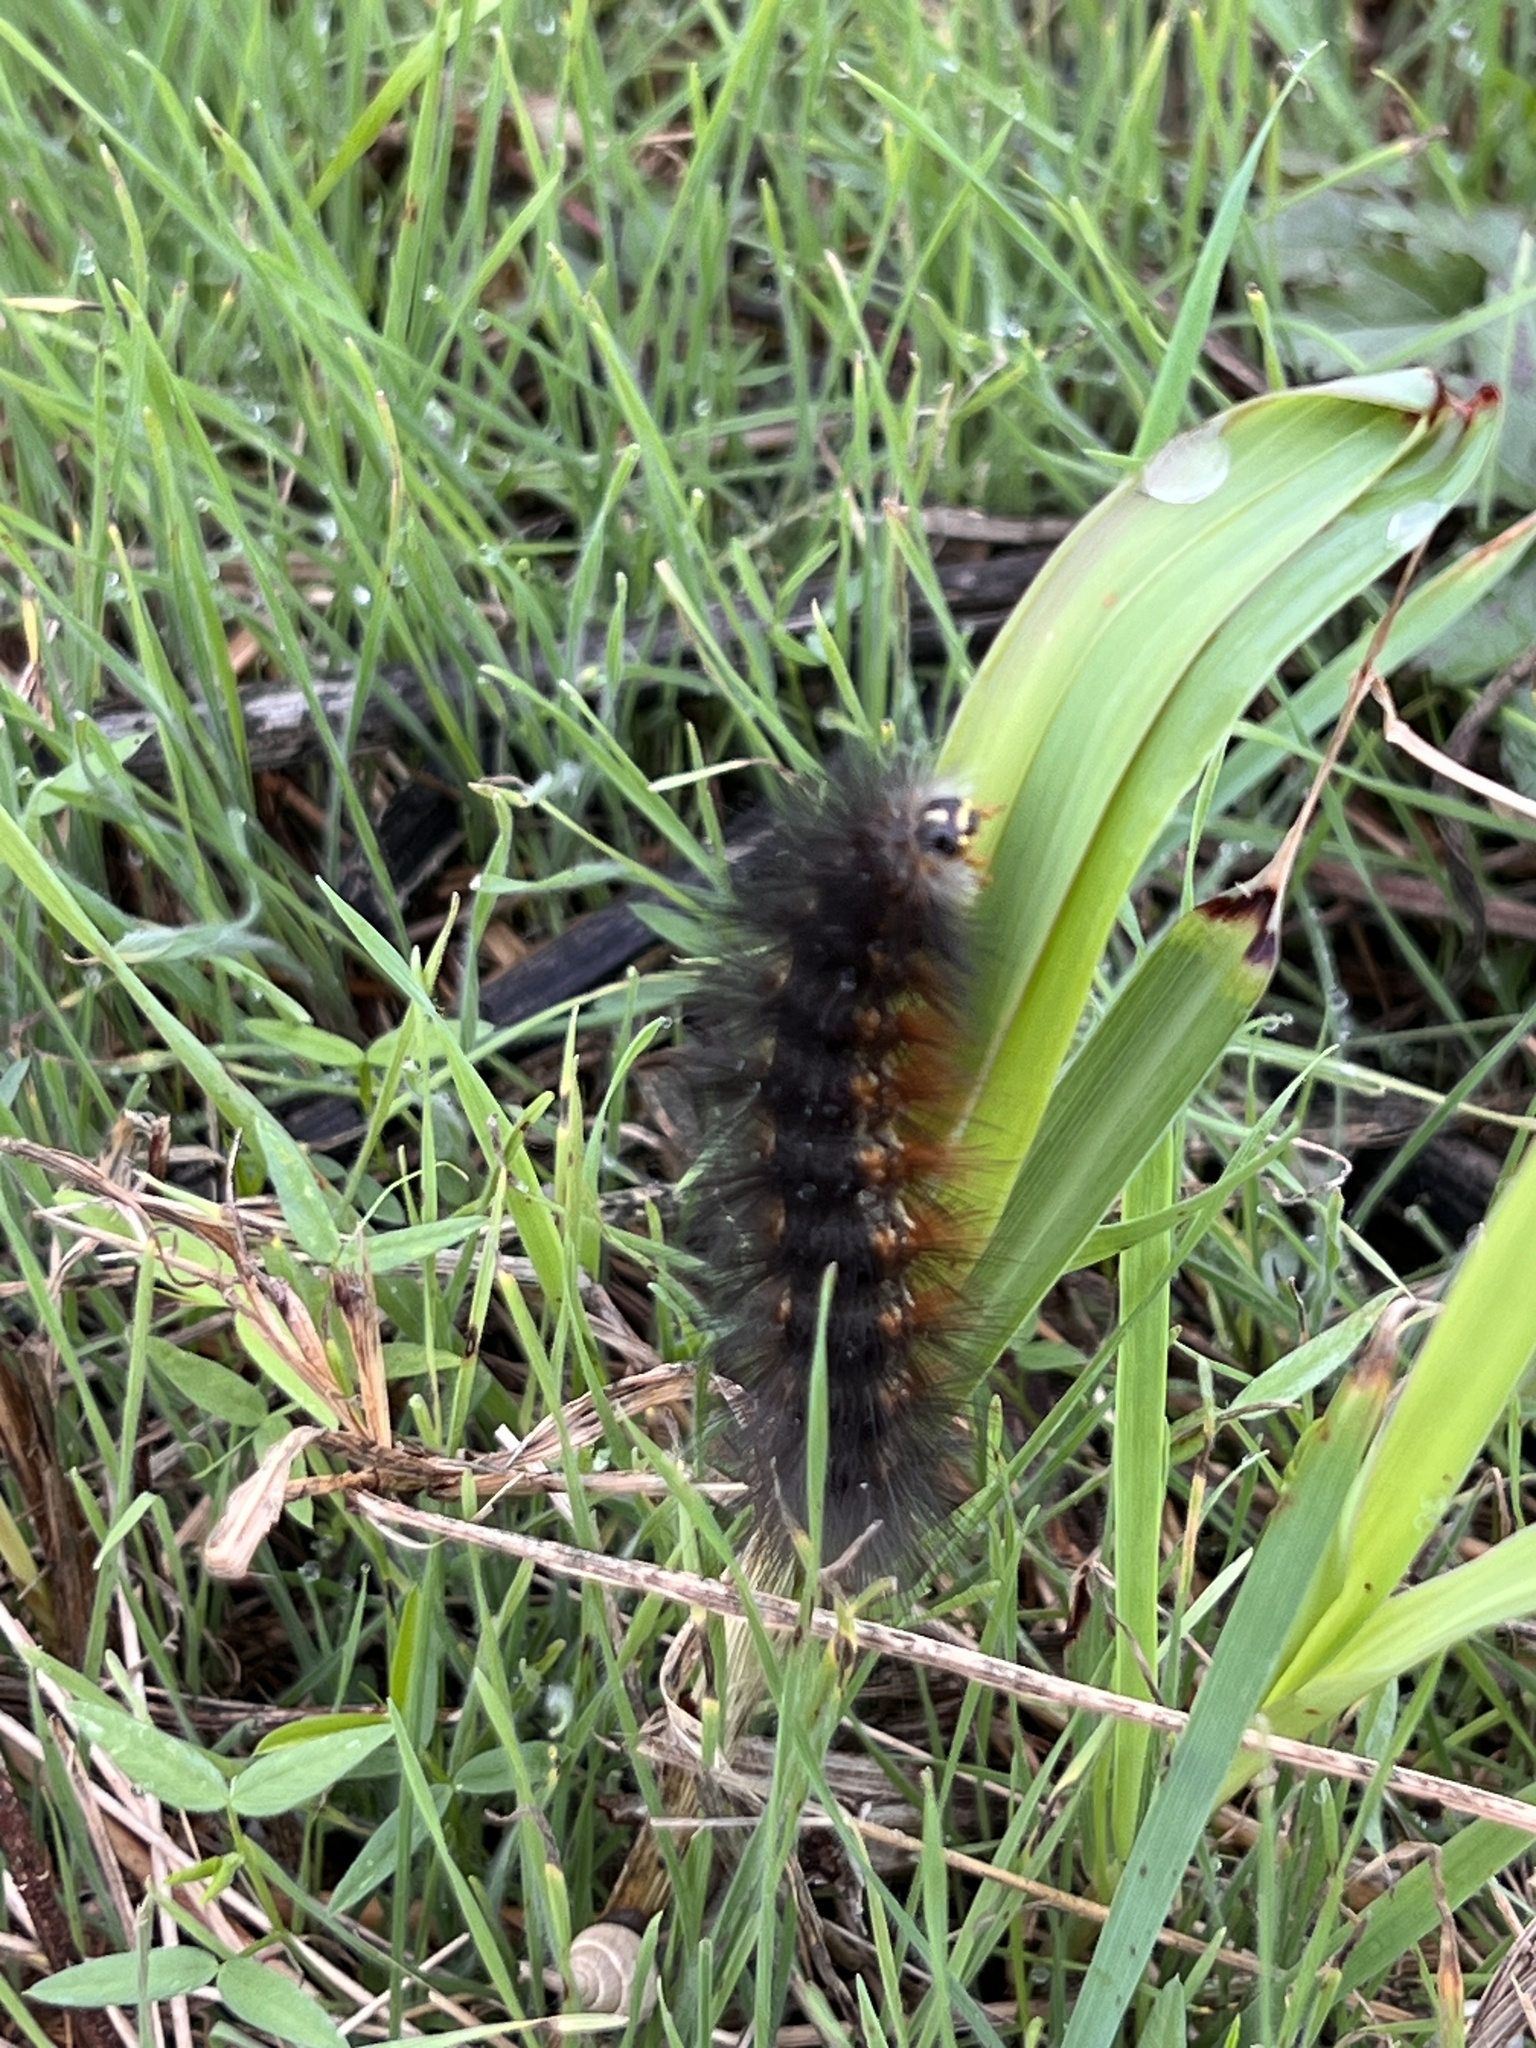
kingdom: Animalia
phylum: Arthropoda
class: Insecta
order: Lepidoptera
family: Erebidae
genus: Estigmene
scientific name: Estigmene acrea
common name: Salt marsh moth
